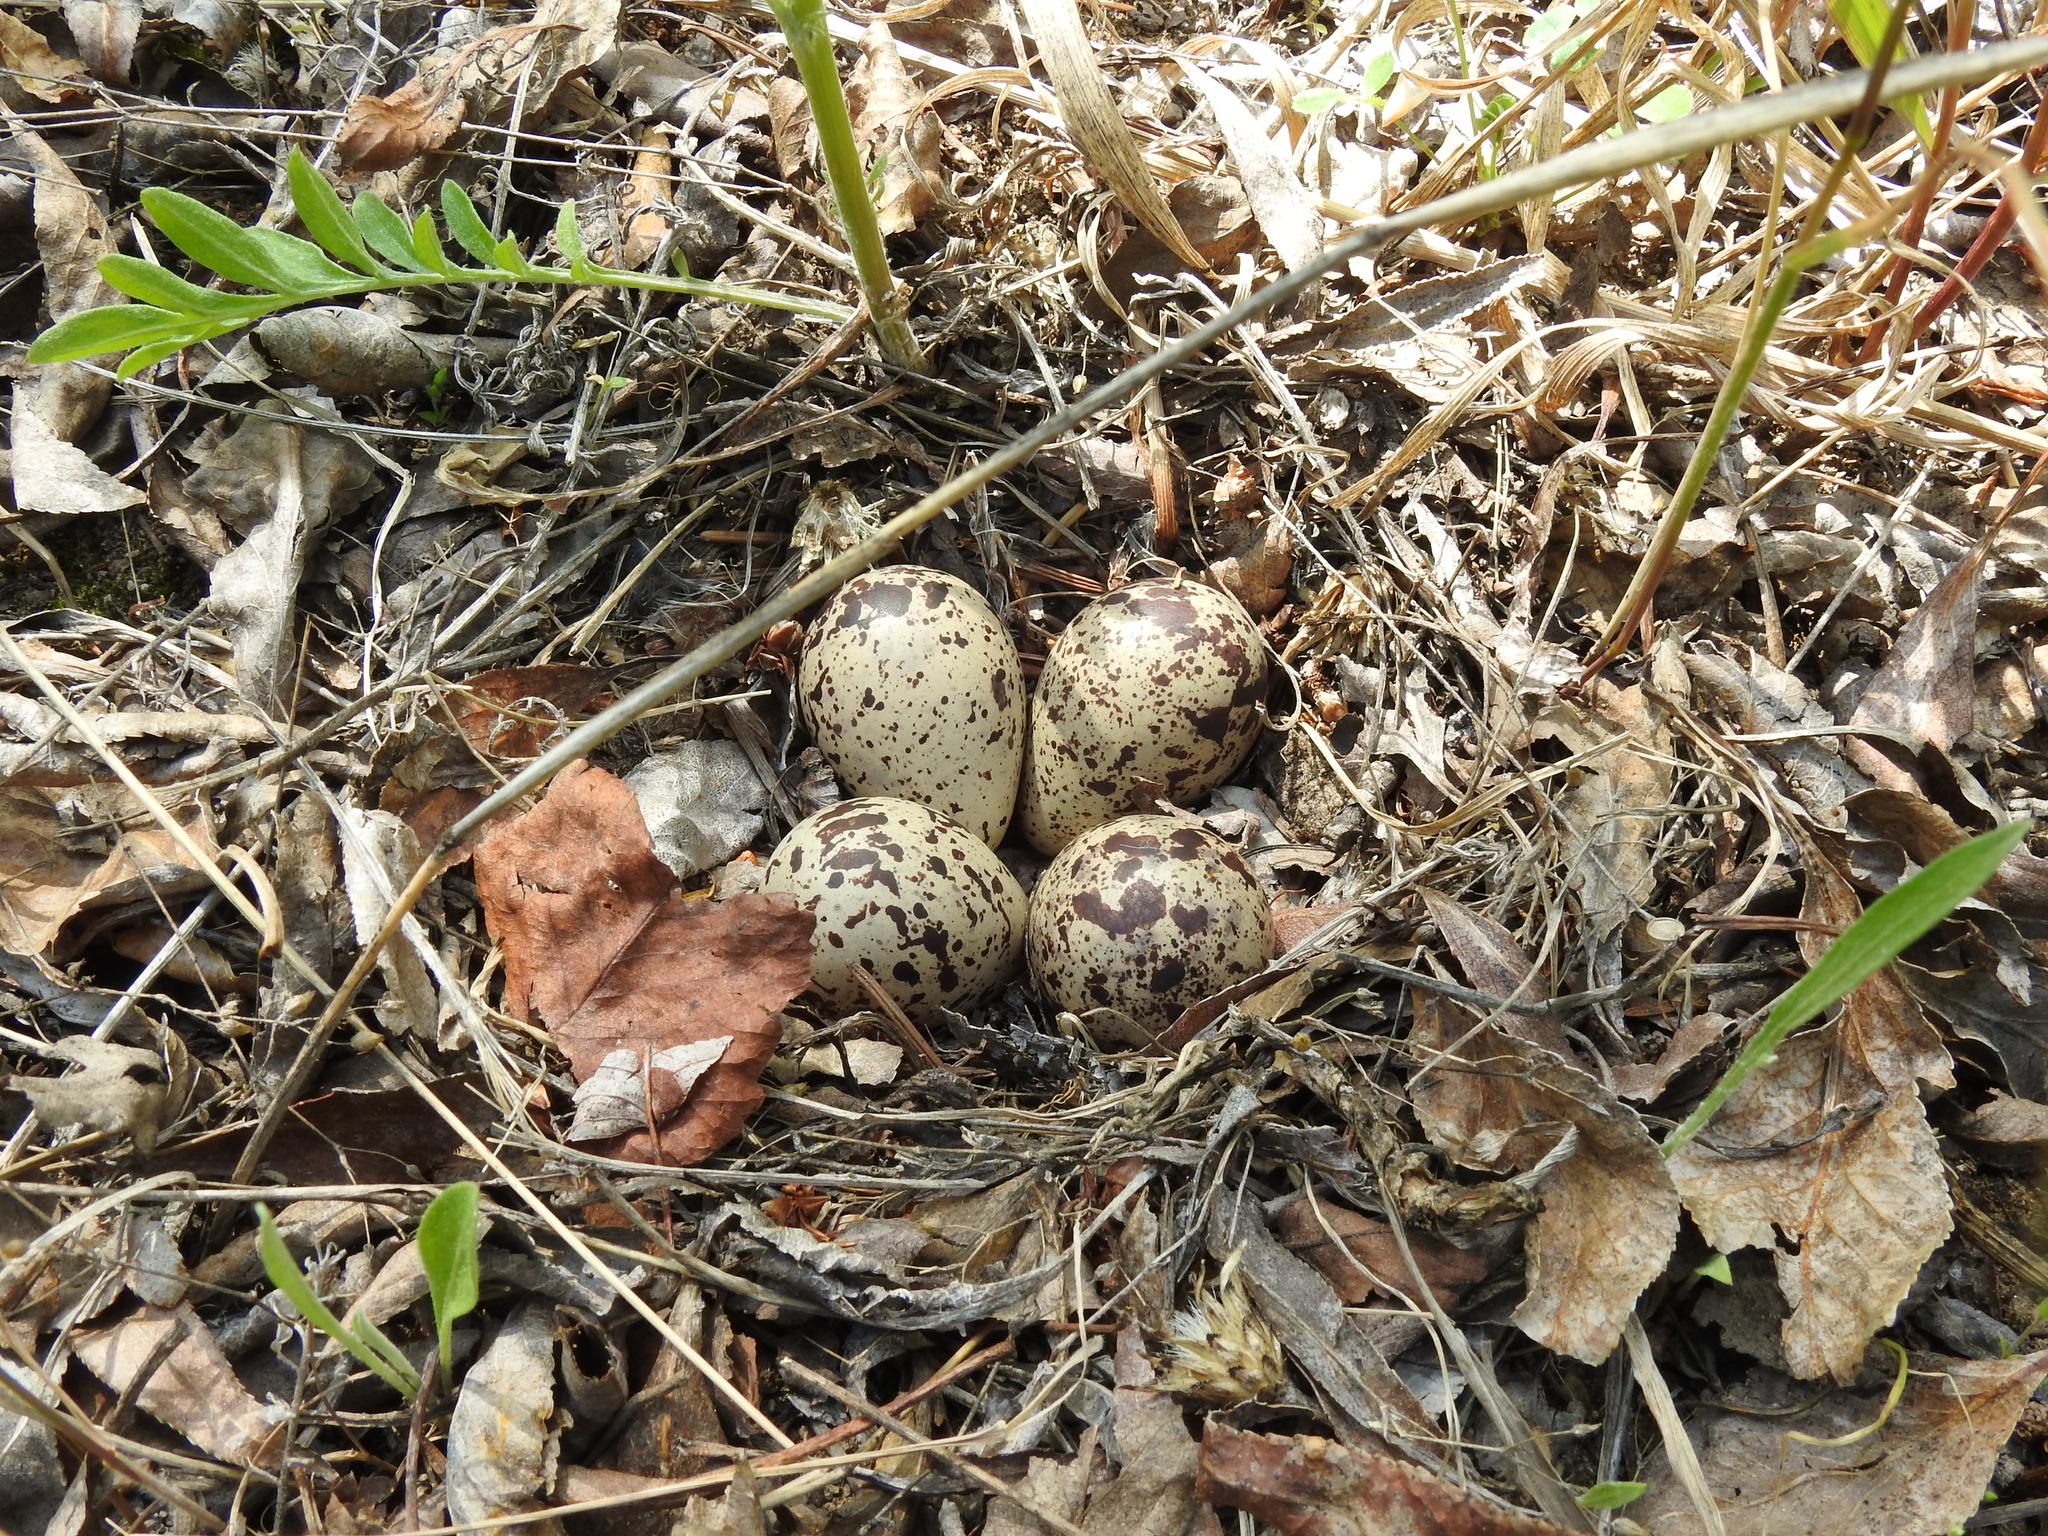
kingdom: Animalia
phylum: Chordata
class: Aves
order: Charadriiformes
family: Scolopacidae
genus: Actitis
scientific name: Actitis macularius
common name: Spotted sandpiper
